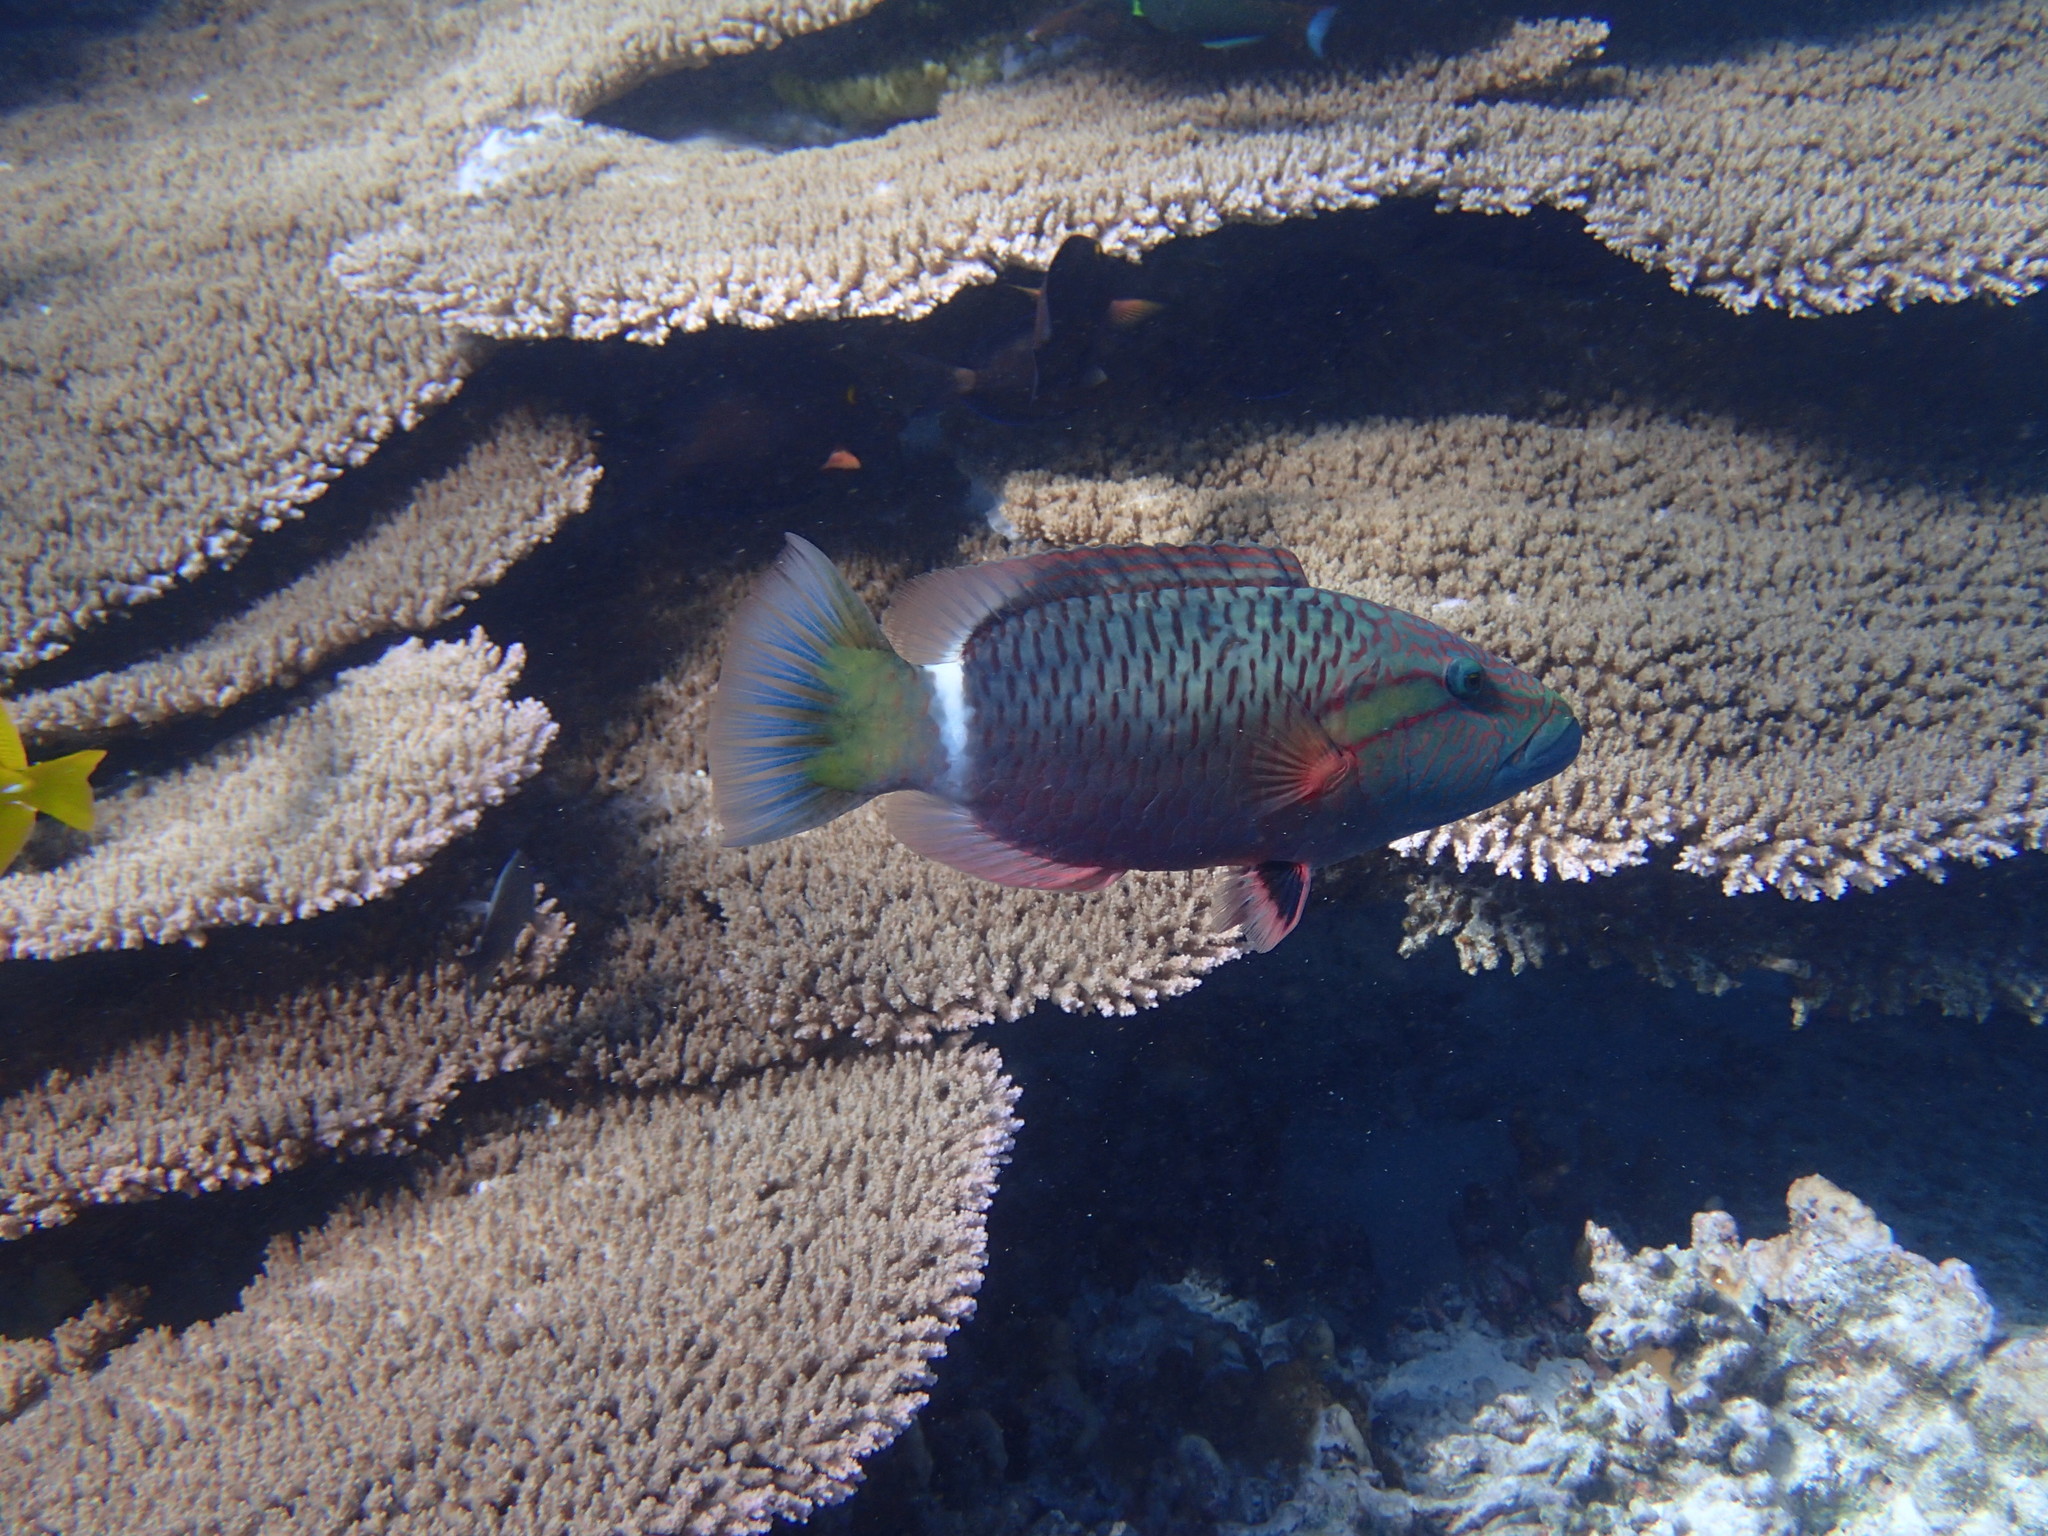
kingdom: Animalia
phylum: Chordata
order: Perciformes
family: Labridae
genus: Oxycheilinus
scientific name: Oxycheilinus unifasciatus
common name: Ringtail maori wrasse
